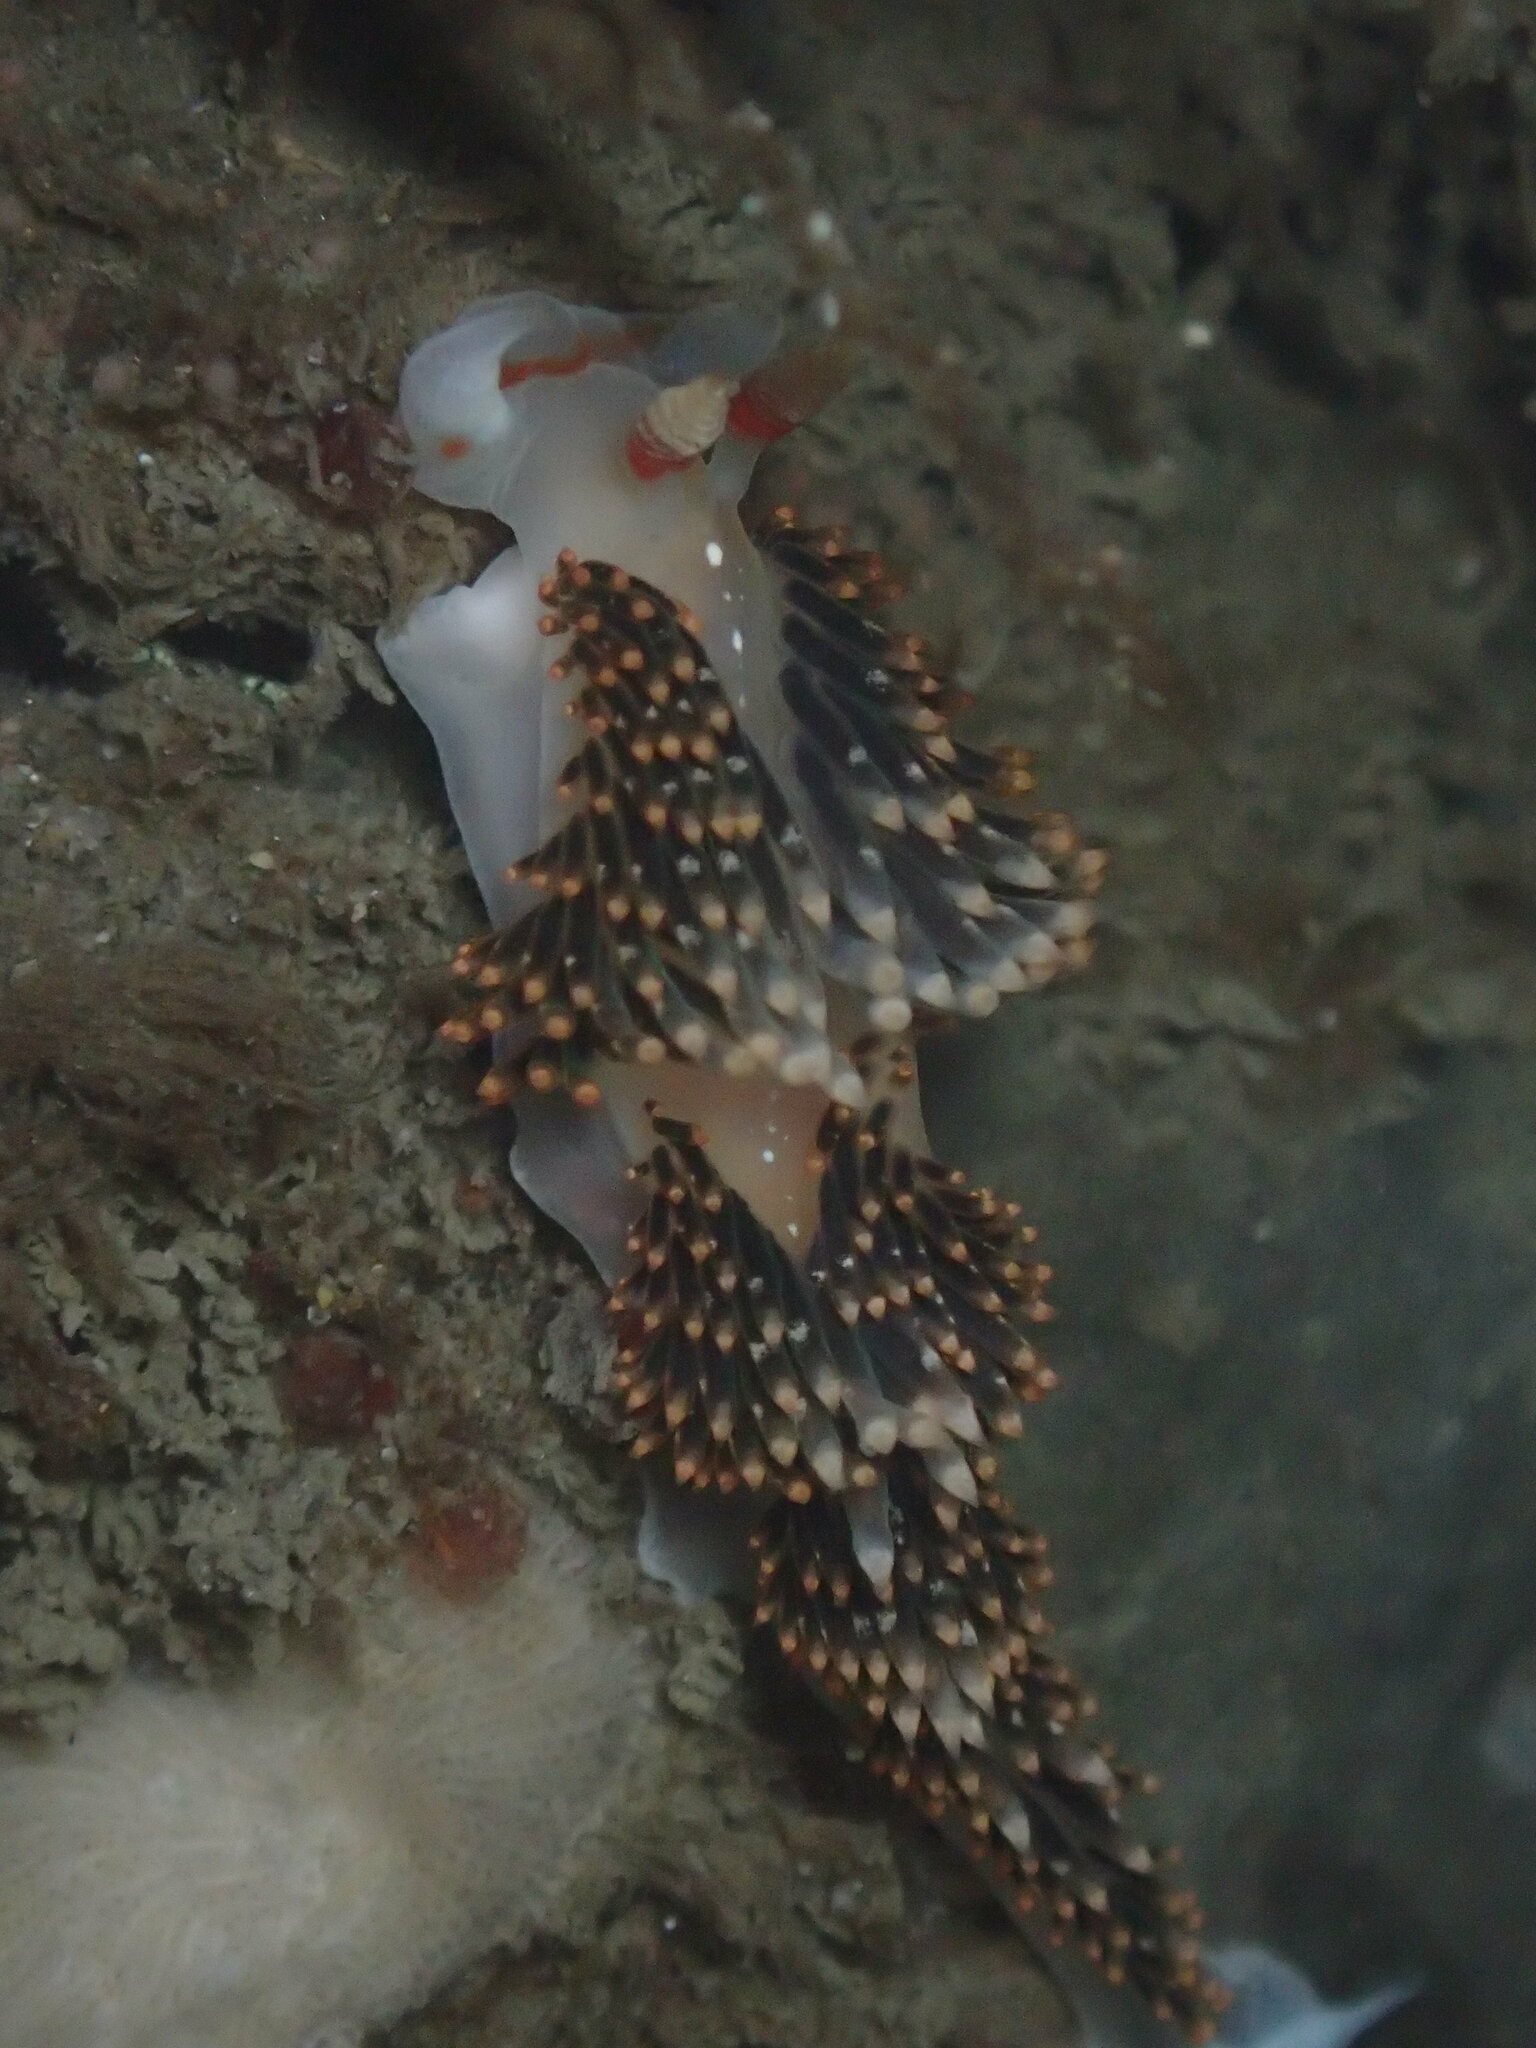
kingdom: Animalia
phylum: Mollusca
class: Gastropoda
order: Nudibranchia
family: Facelinidae
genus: Phidiana
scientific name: Phidiana hiltoni
